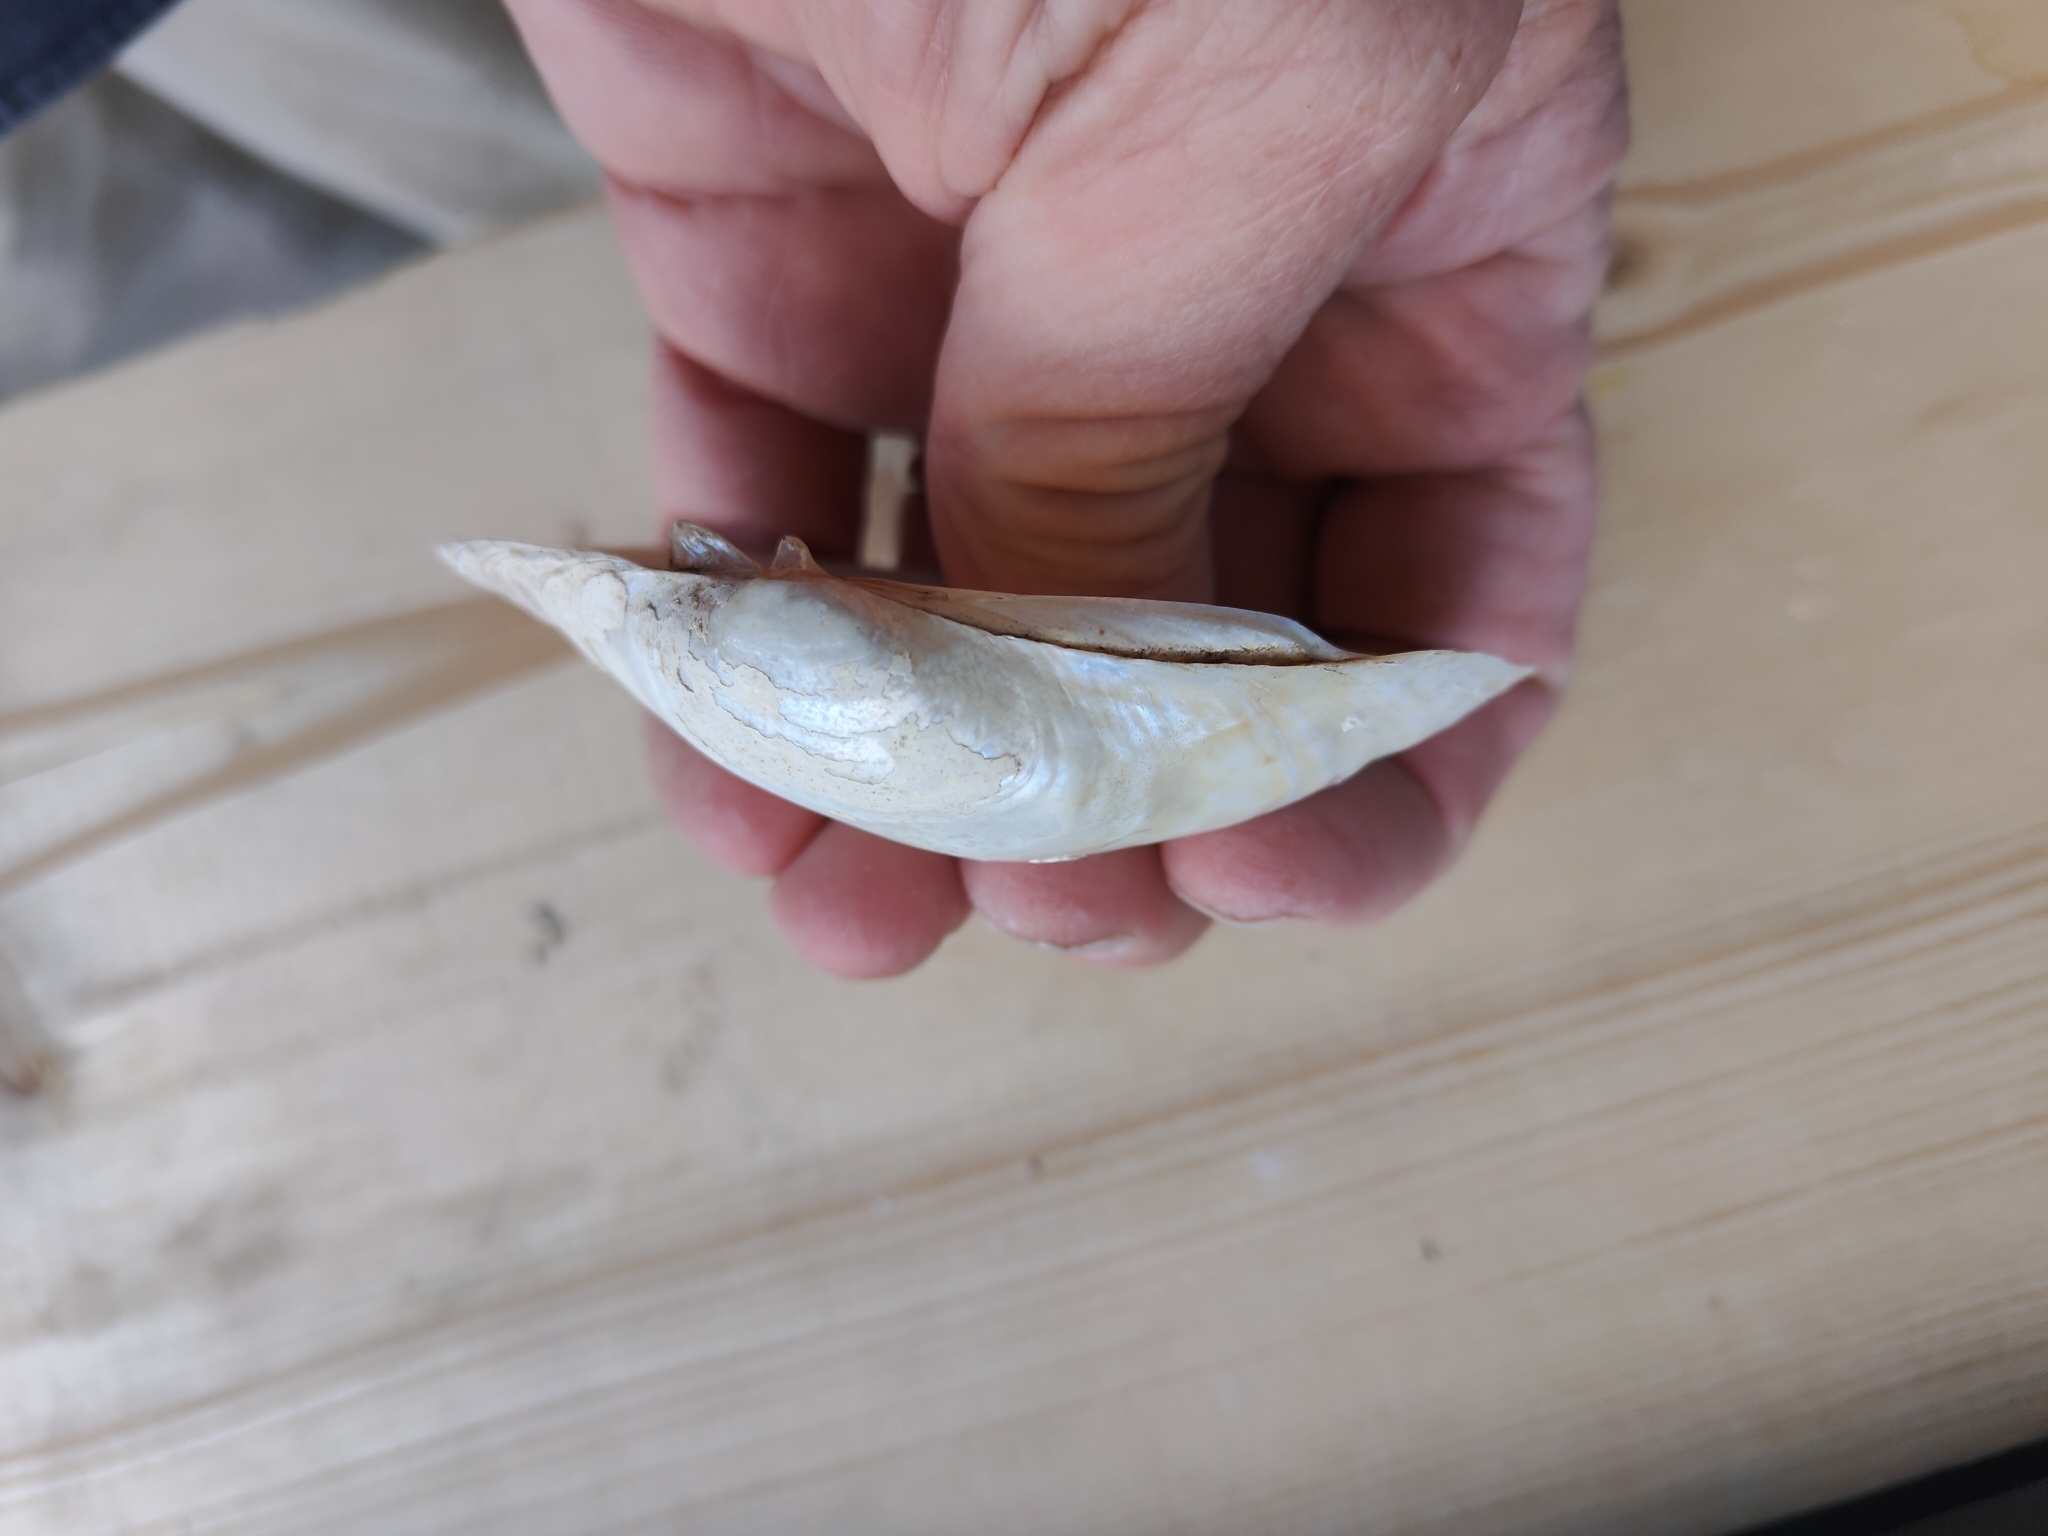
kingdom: Animalia
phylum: Mollusca
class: Bivalvia
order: Unionida
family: Unionidae
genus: Lampsilis
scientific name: Lampsilis cardium
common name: Plain pocketbook
